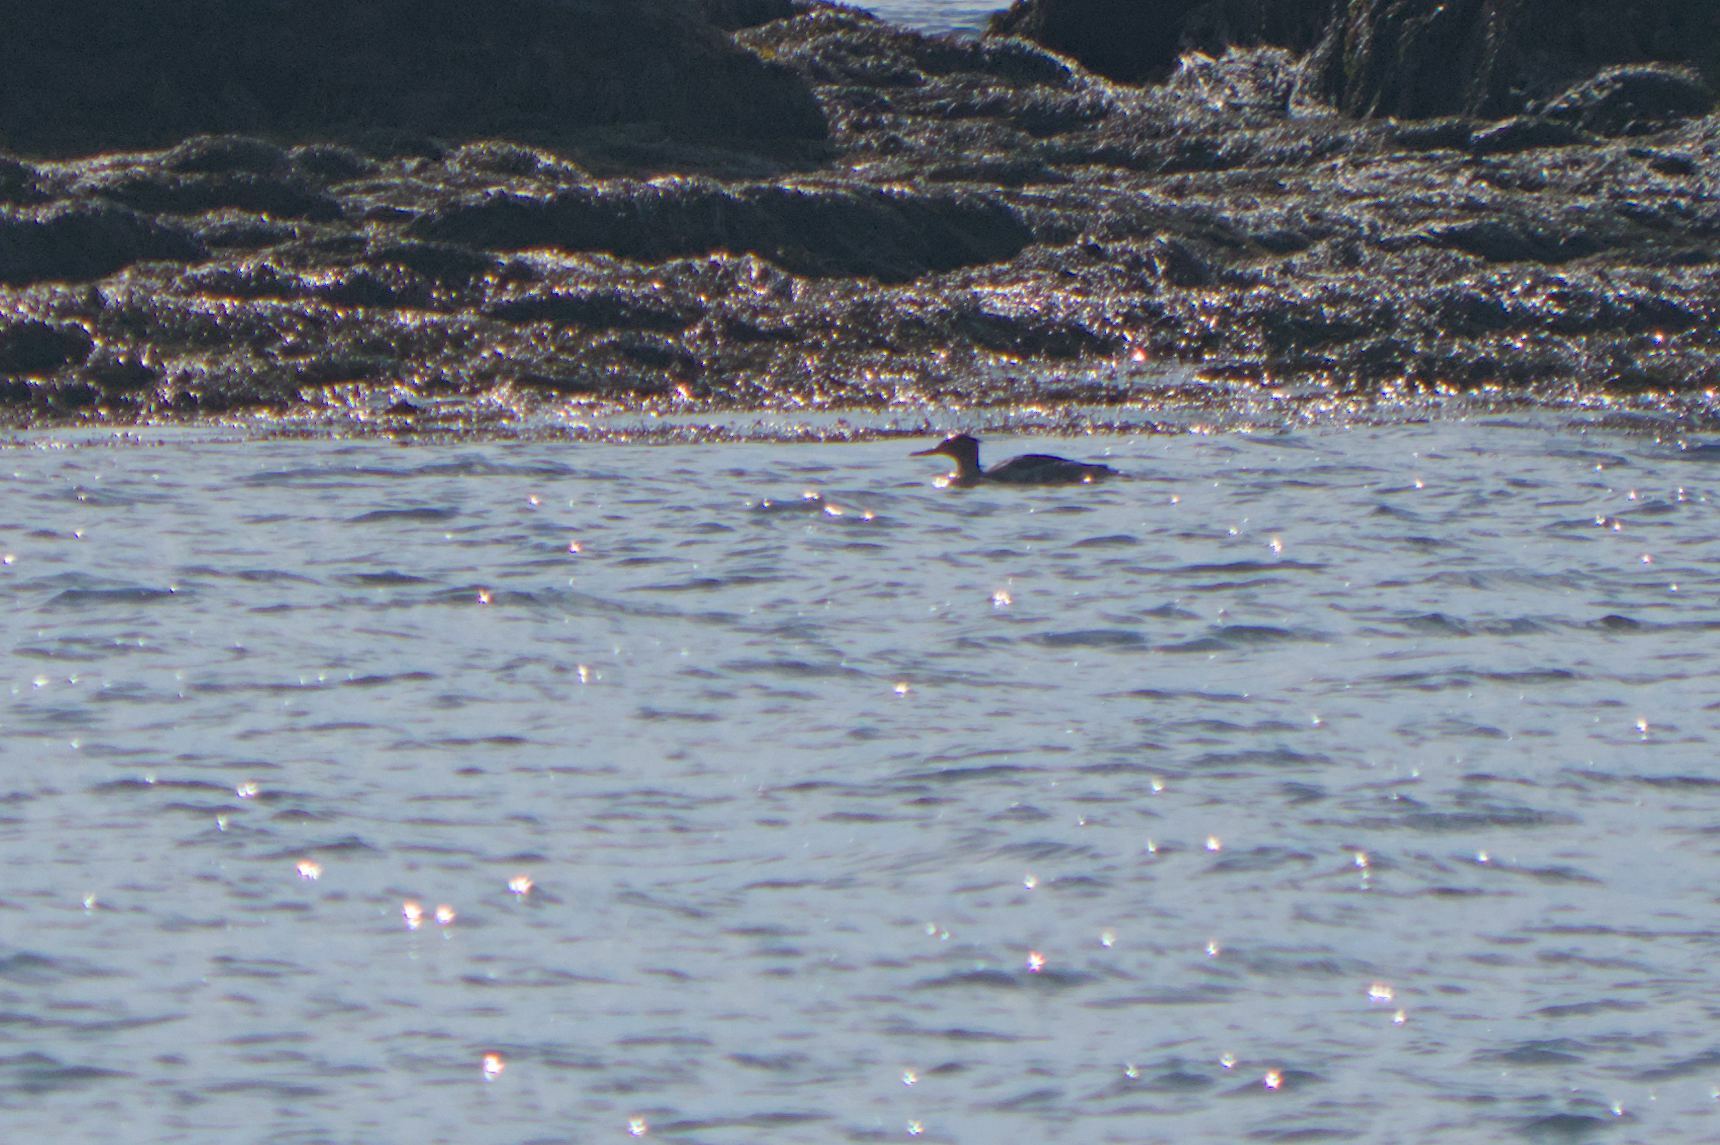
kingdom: Animalia
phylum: Chordata
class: Aves
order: Anseriformes
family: Anatidae
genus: Mergus
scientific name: Mergus serrator
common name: Red-breasted merganser
